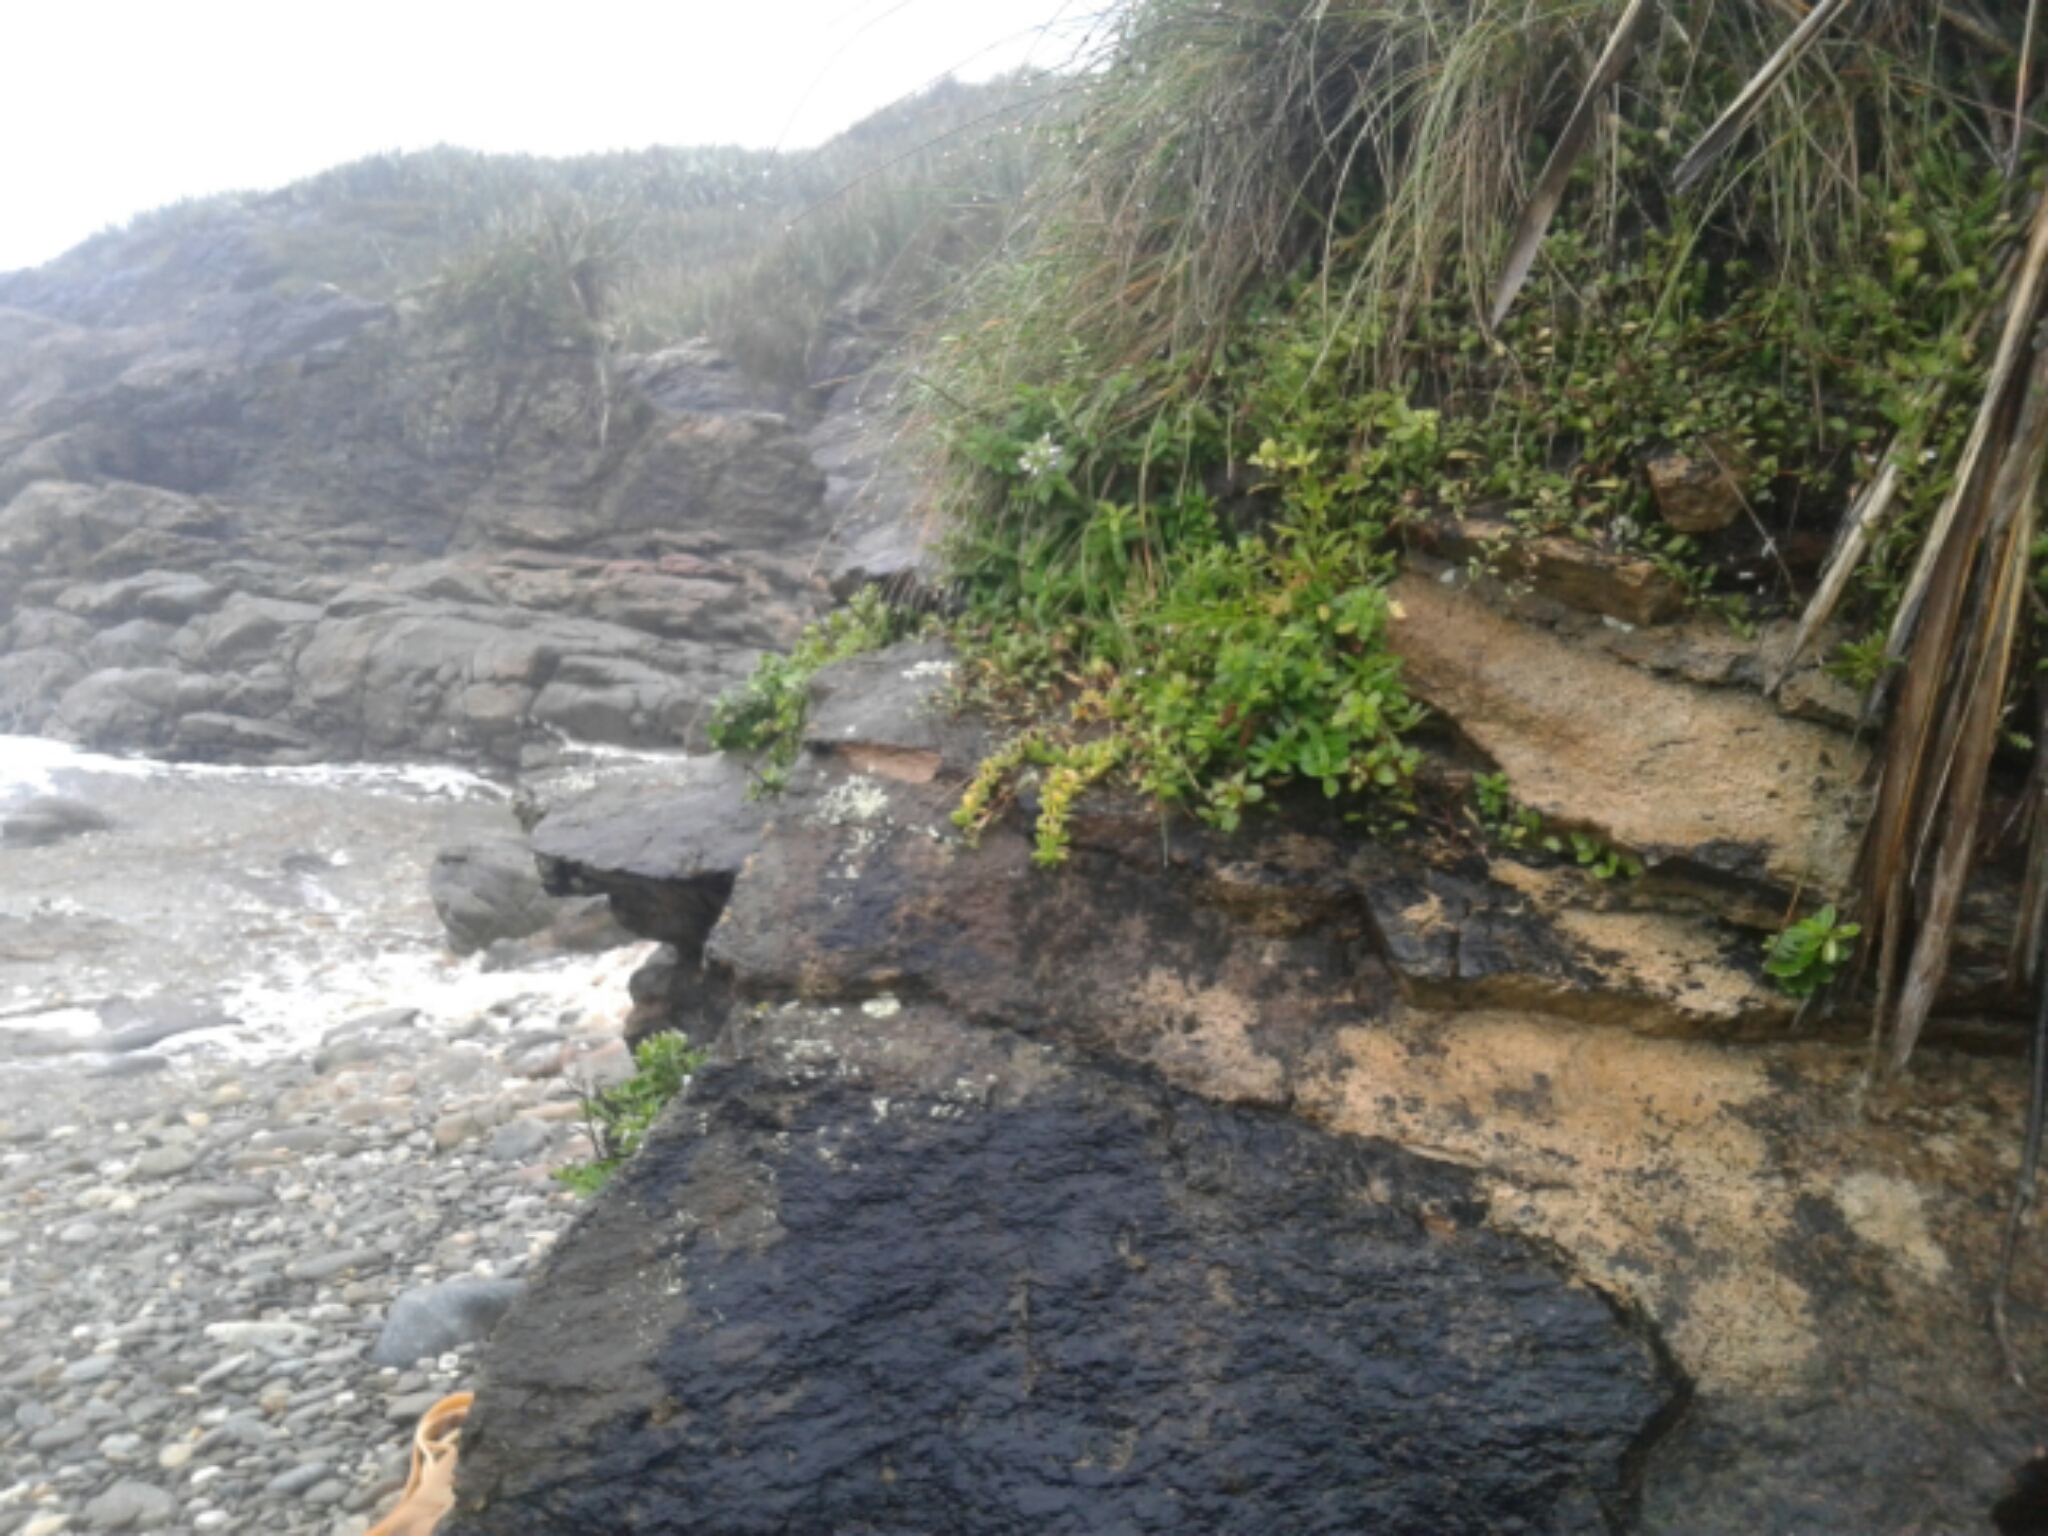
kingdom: Plantae
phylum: Tracheophyta
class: Magnoliopsida
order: Gentianales
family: Rubiaceae
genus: Coprosma
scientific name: Coprosma rhamnoides
